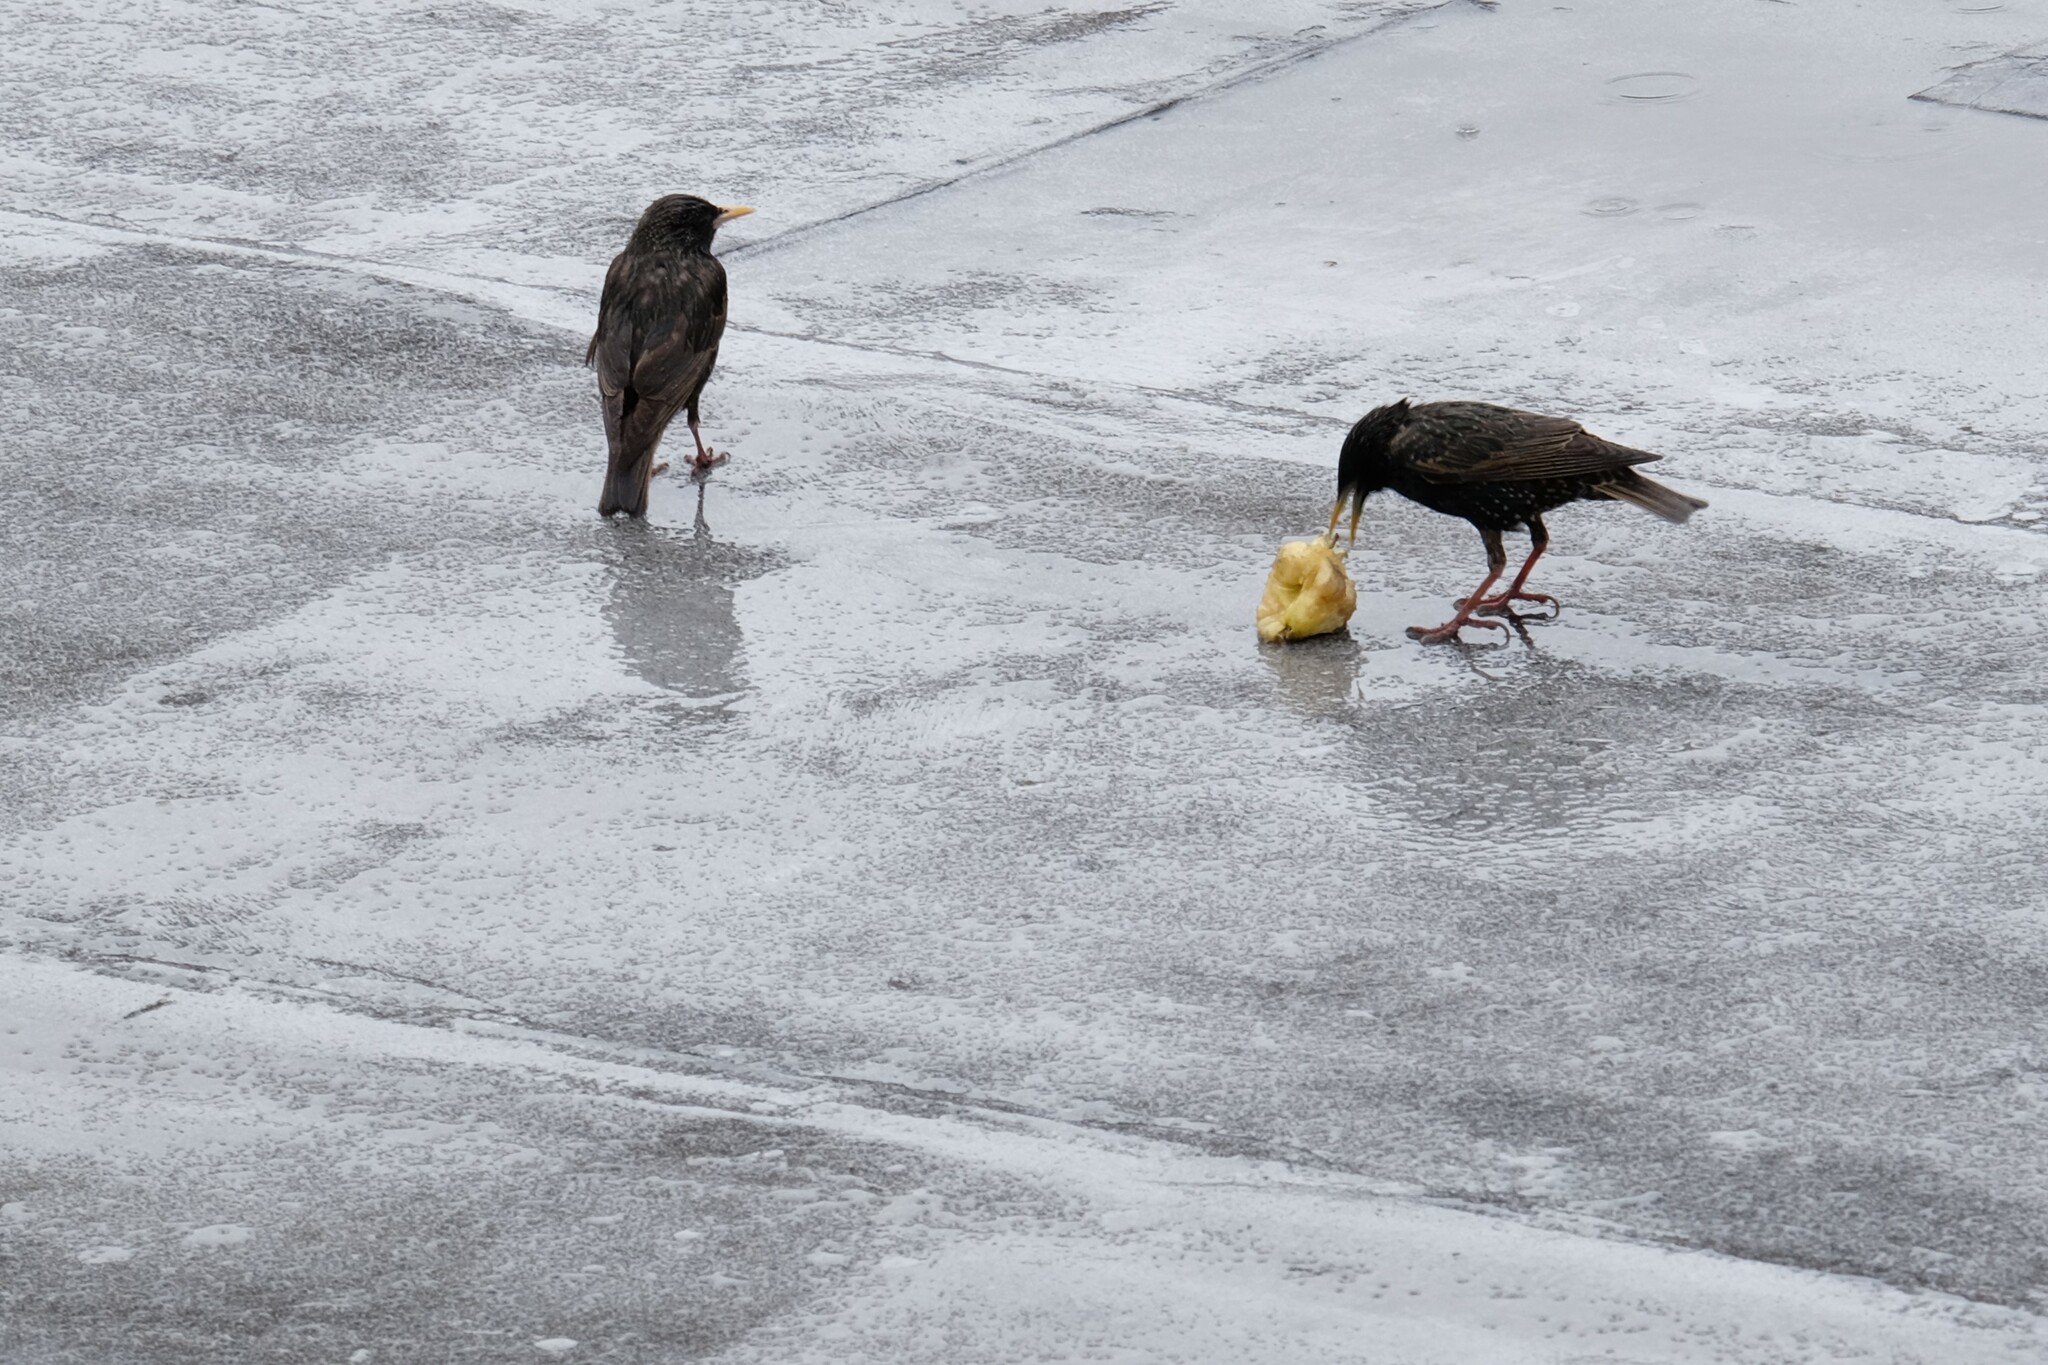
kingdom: Animalia
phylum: Chordata
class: Aves
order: Passeriformes
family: Sturnidae
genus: Sturnus
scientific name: Sturnus vulgaris
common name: Common starling
